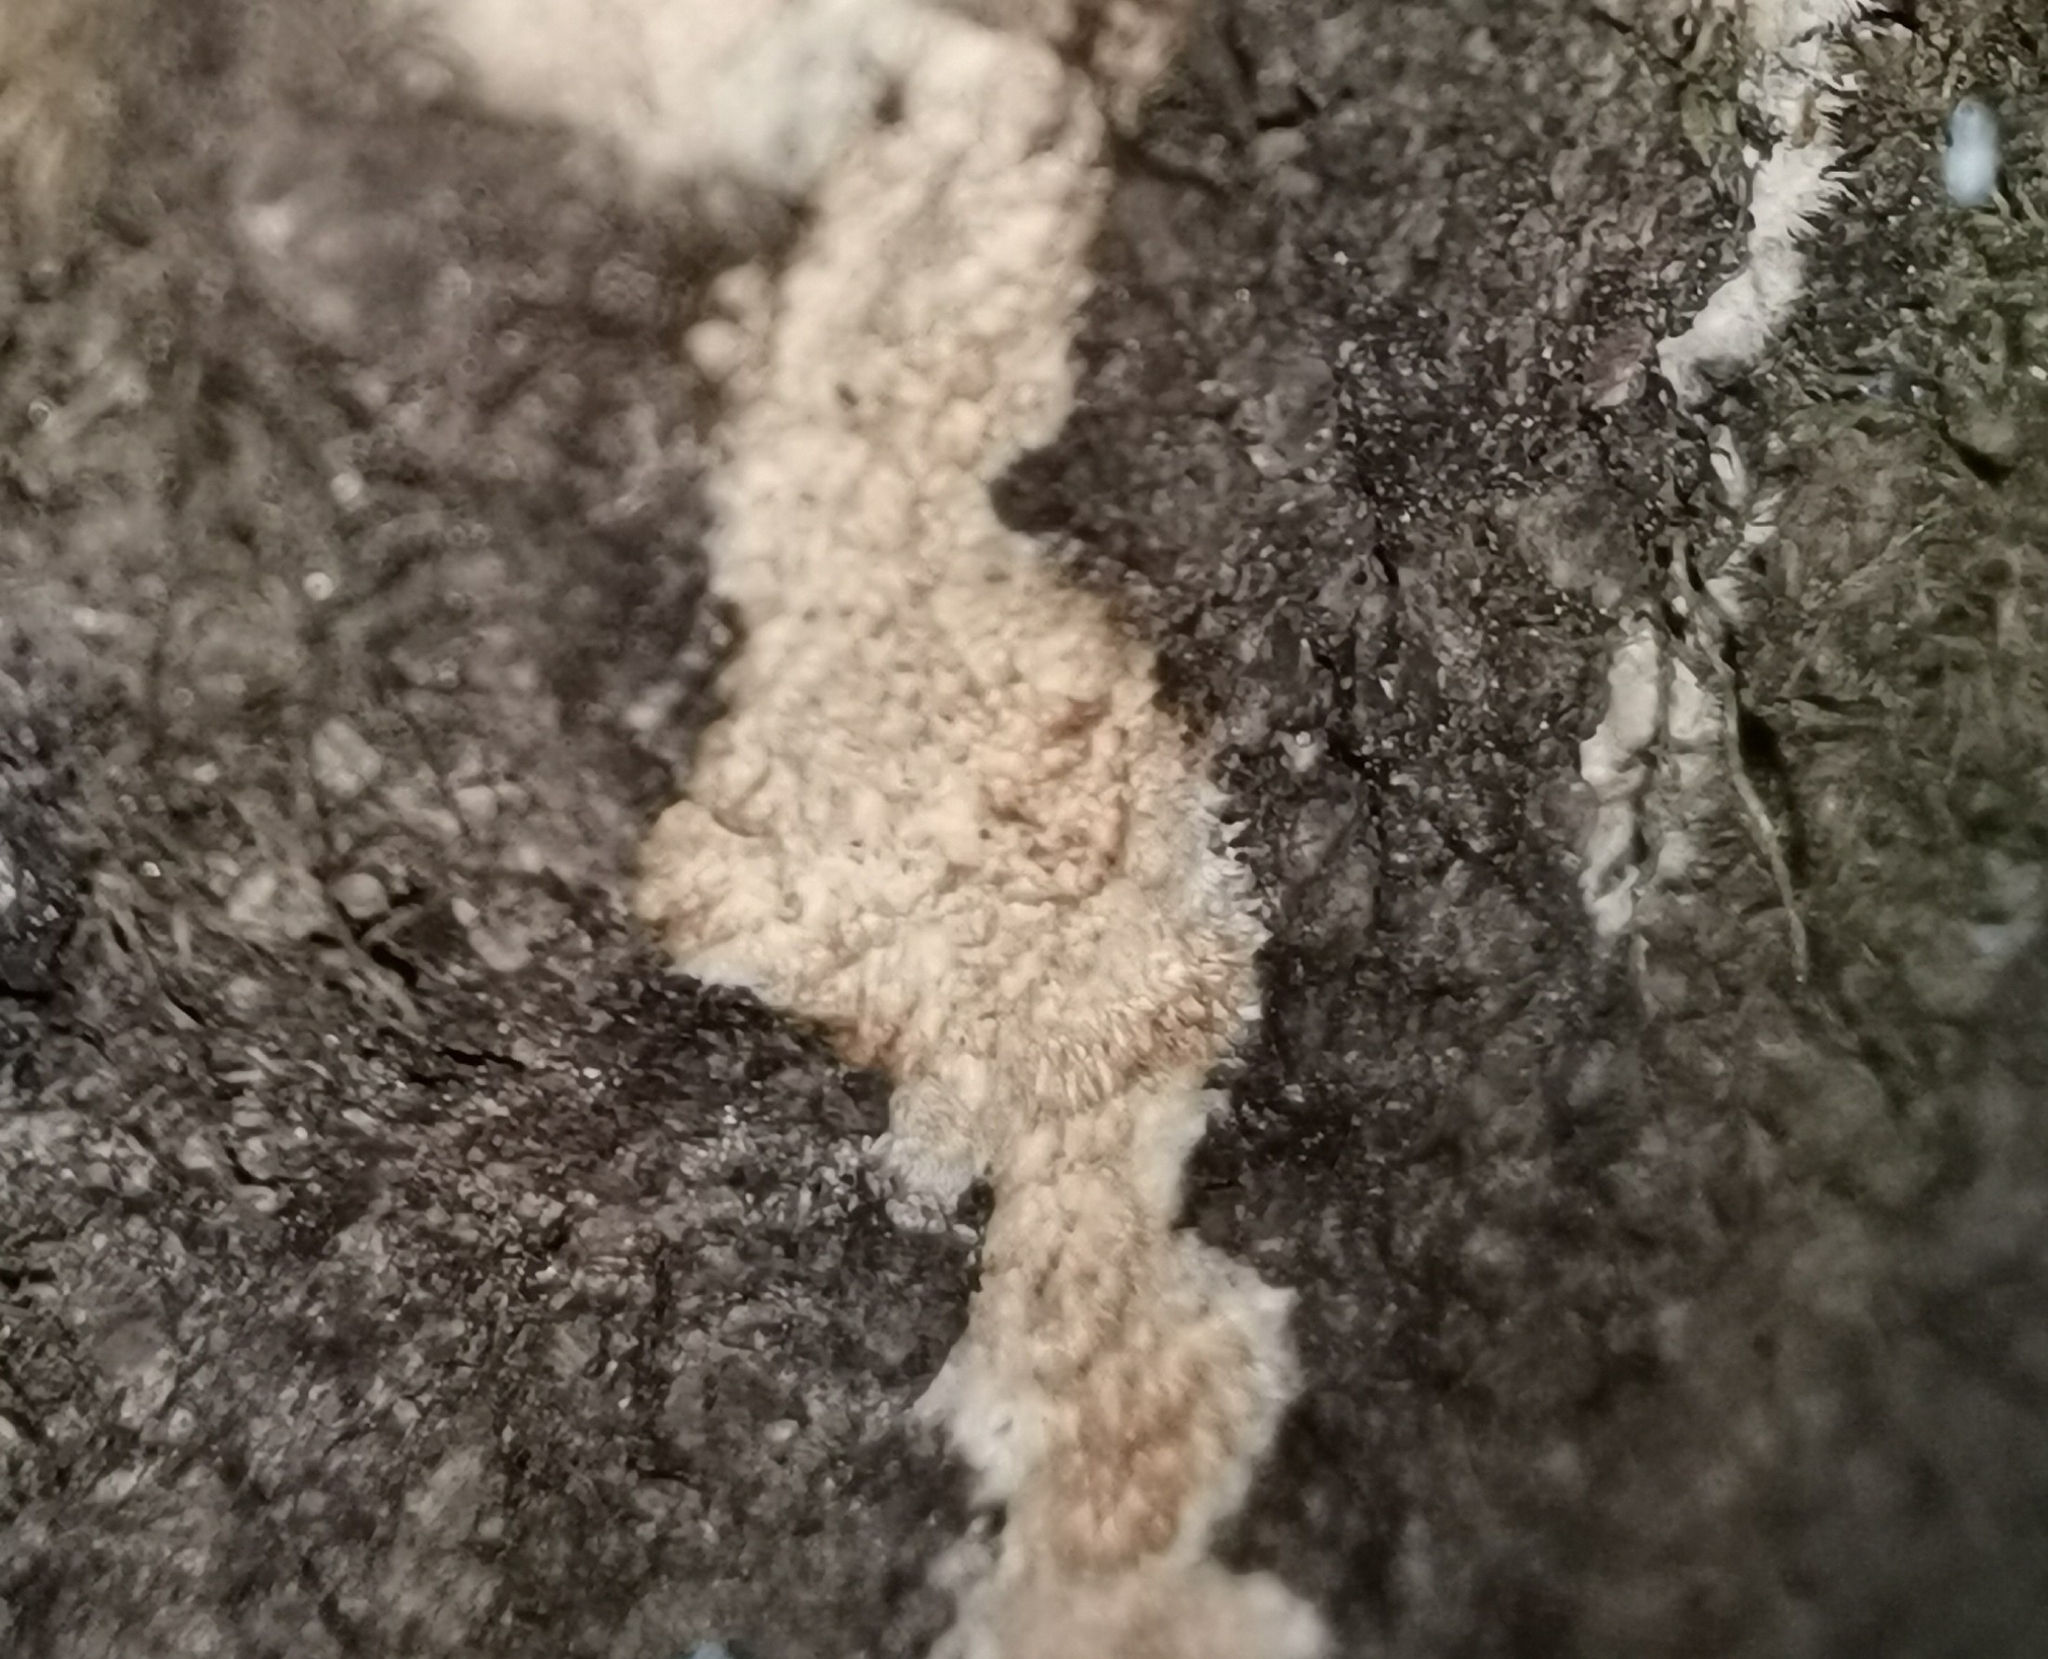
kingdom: Fungi
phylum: Basidiomycota
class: Agaricomycetes
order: Hymenochaetales
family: Oxyporaceae
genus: Oxyporus
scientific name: Oxyporus corticola
